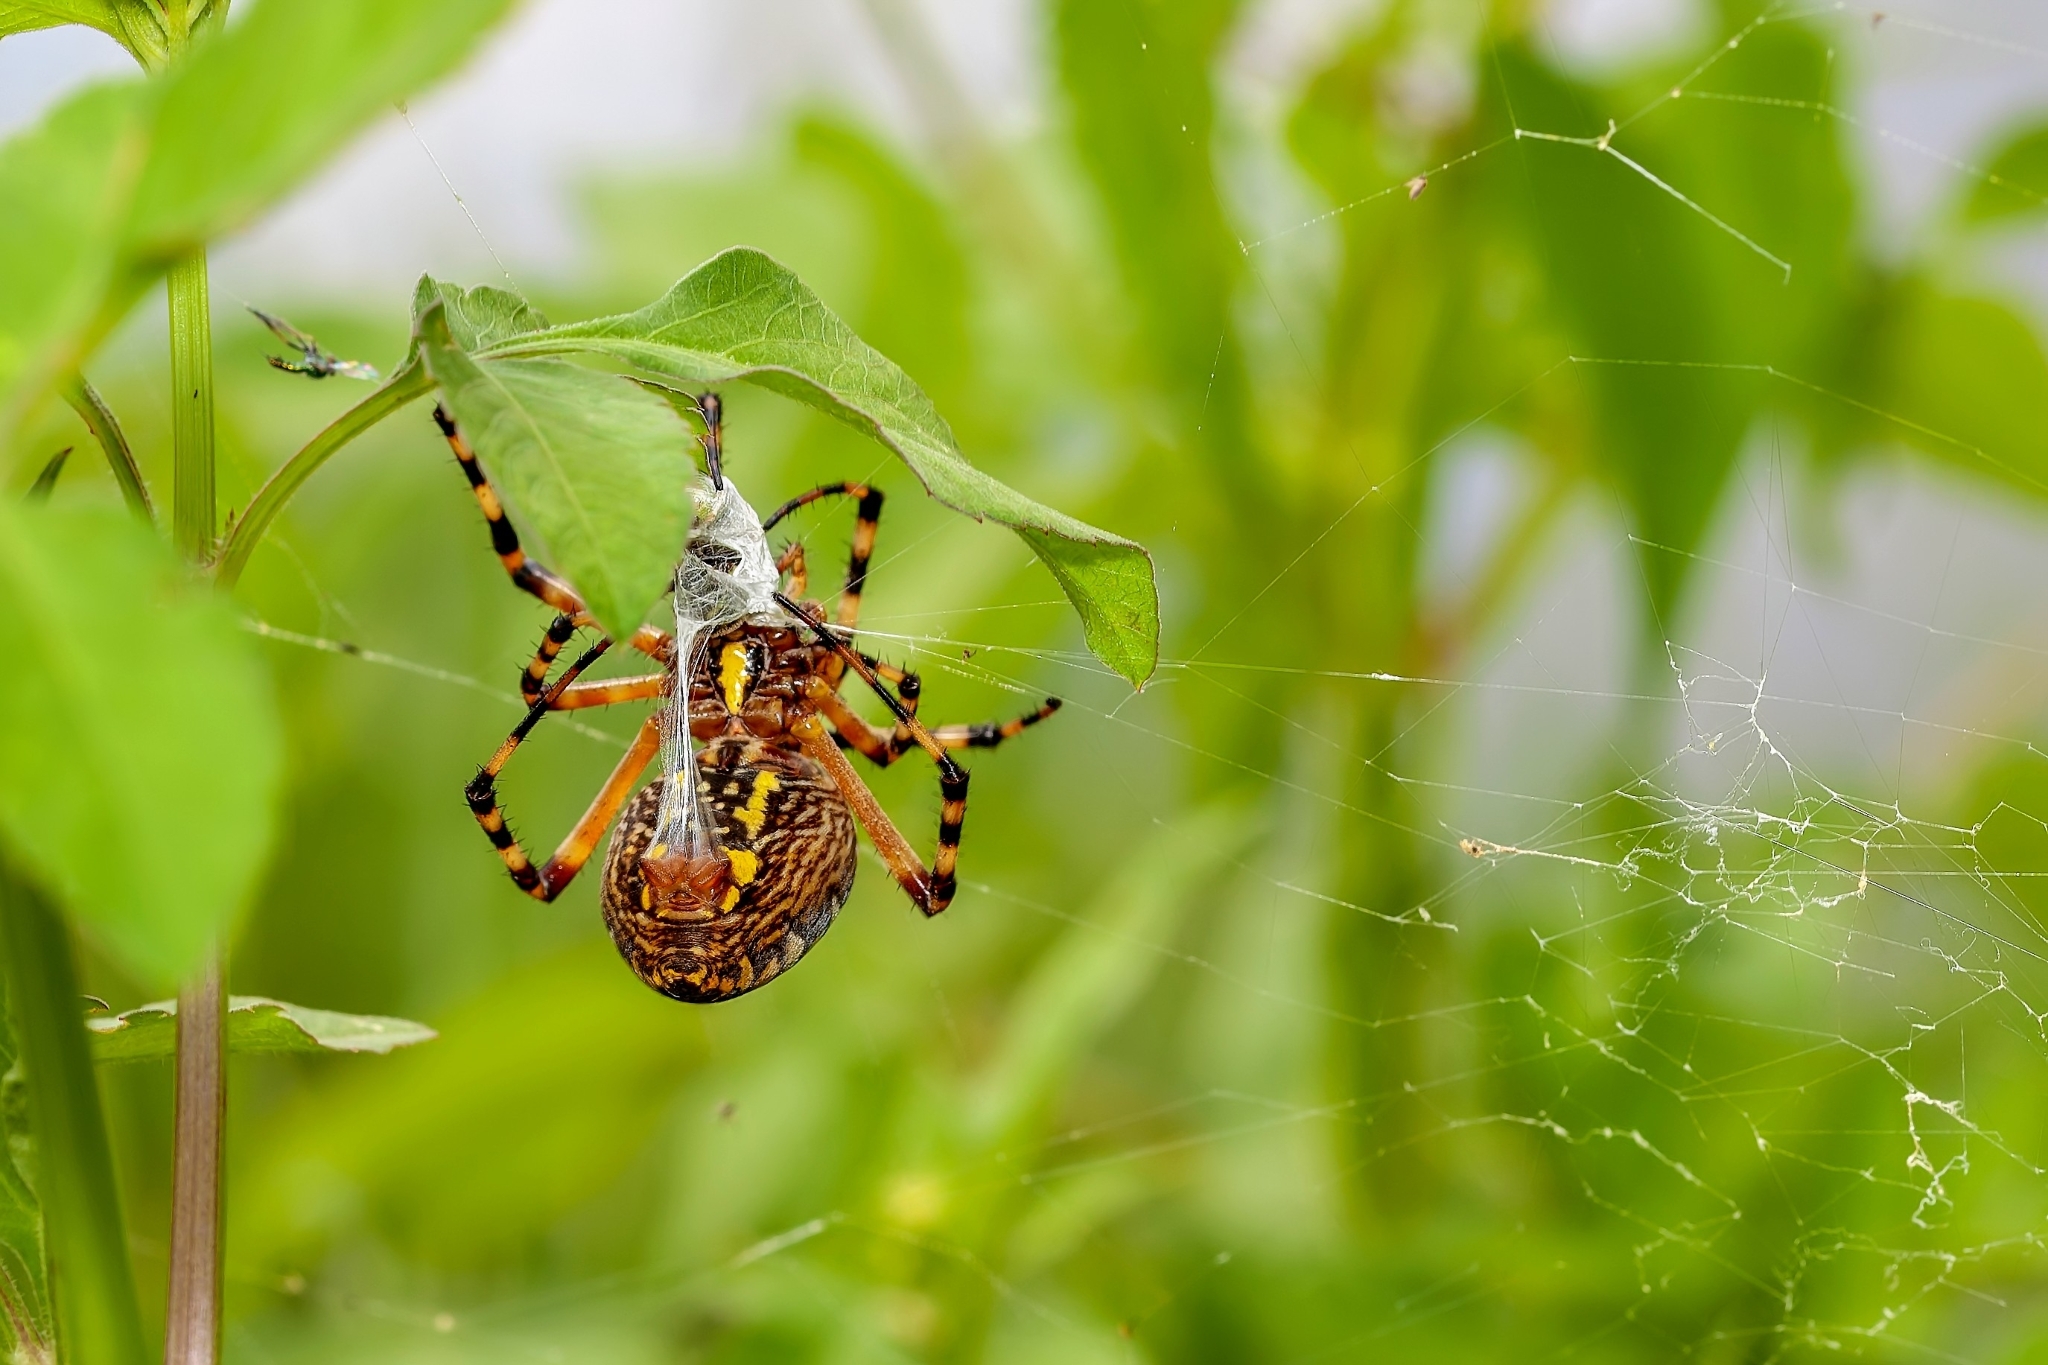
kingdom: Animalia
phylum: Arthropoda
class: Arachnida
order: Araneae
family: Araneidae
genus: Argiope
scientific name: Argiope aurantia
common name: Orb weavers
